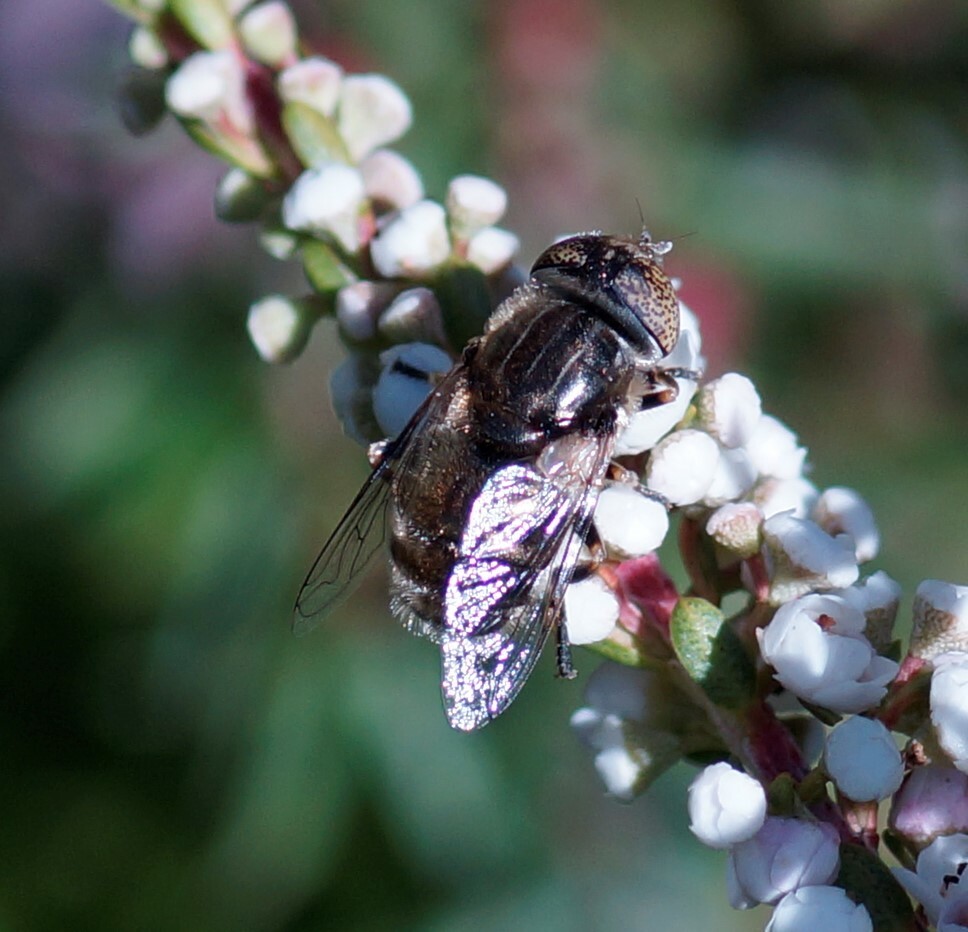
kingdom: Animalia
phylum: Arthropoda
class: Insecta
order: Diptera
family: Syrphidae
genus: Eristalinus
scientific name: Eristalinus aeneus
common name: Syrphid fly
